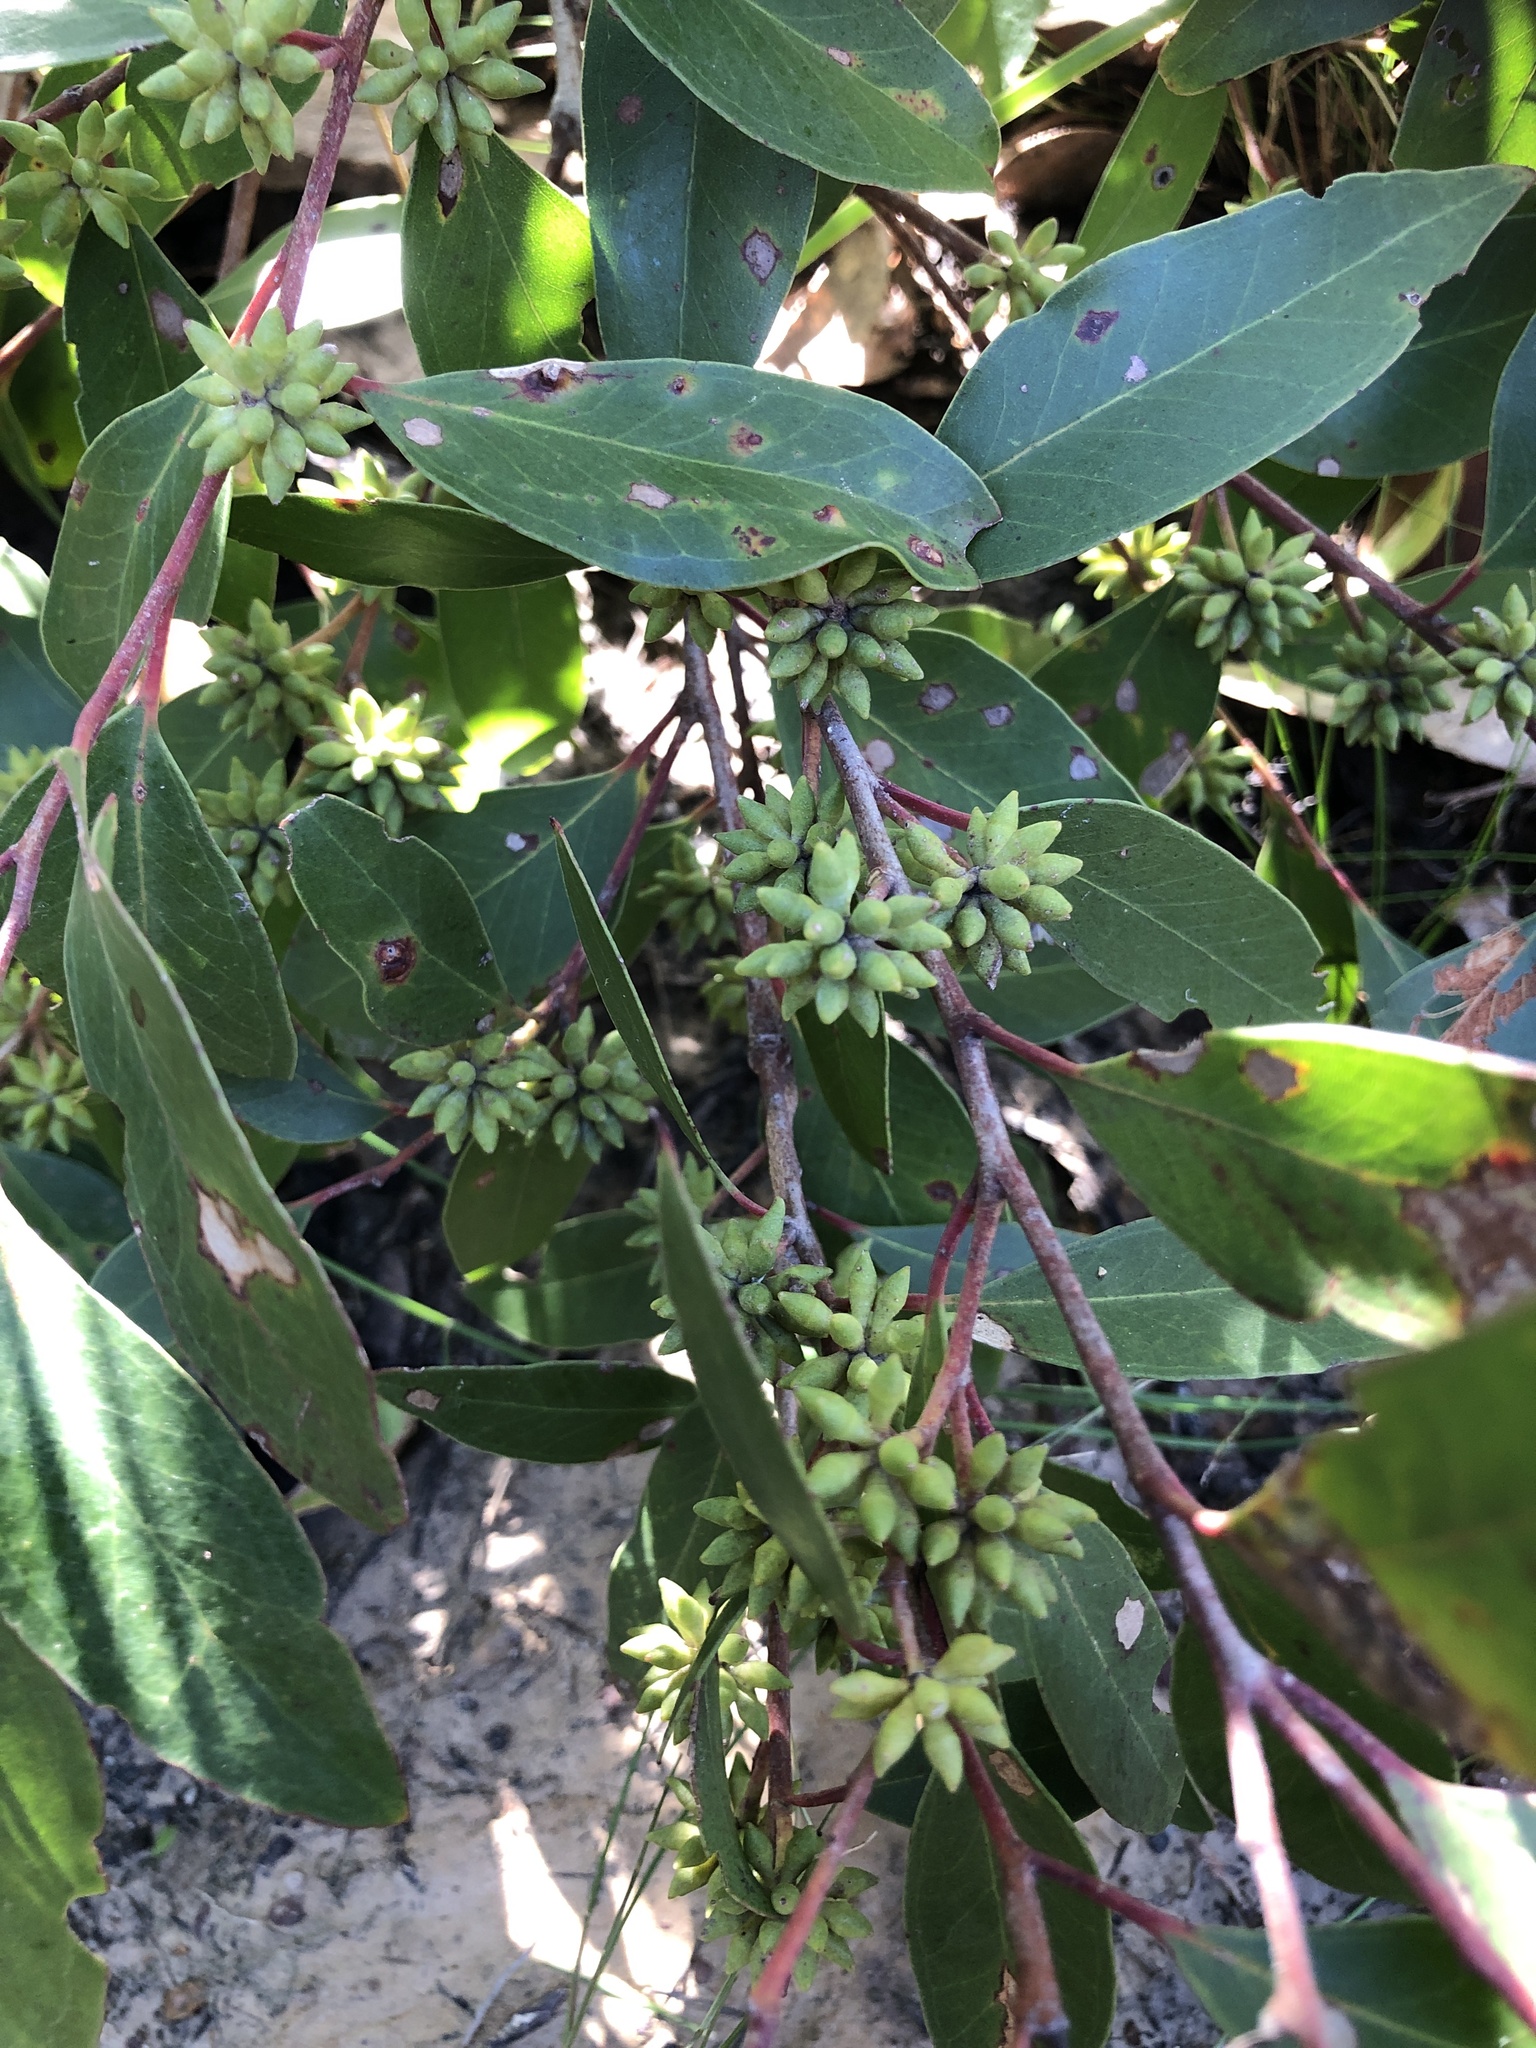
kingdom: Plantae
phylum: Tracheophyta
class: Magnoliopsida
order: Myrtales
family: Myrtaceae
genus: Eucalyptus
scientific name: Eucalyptus globoidea
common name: White-stringybark
